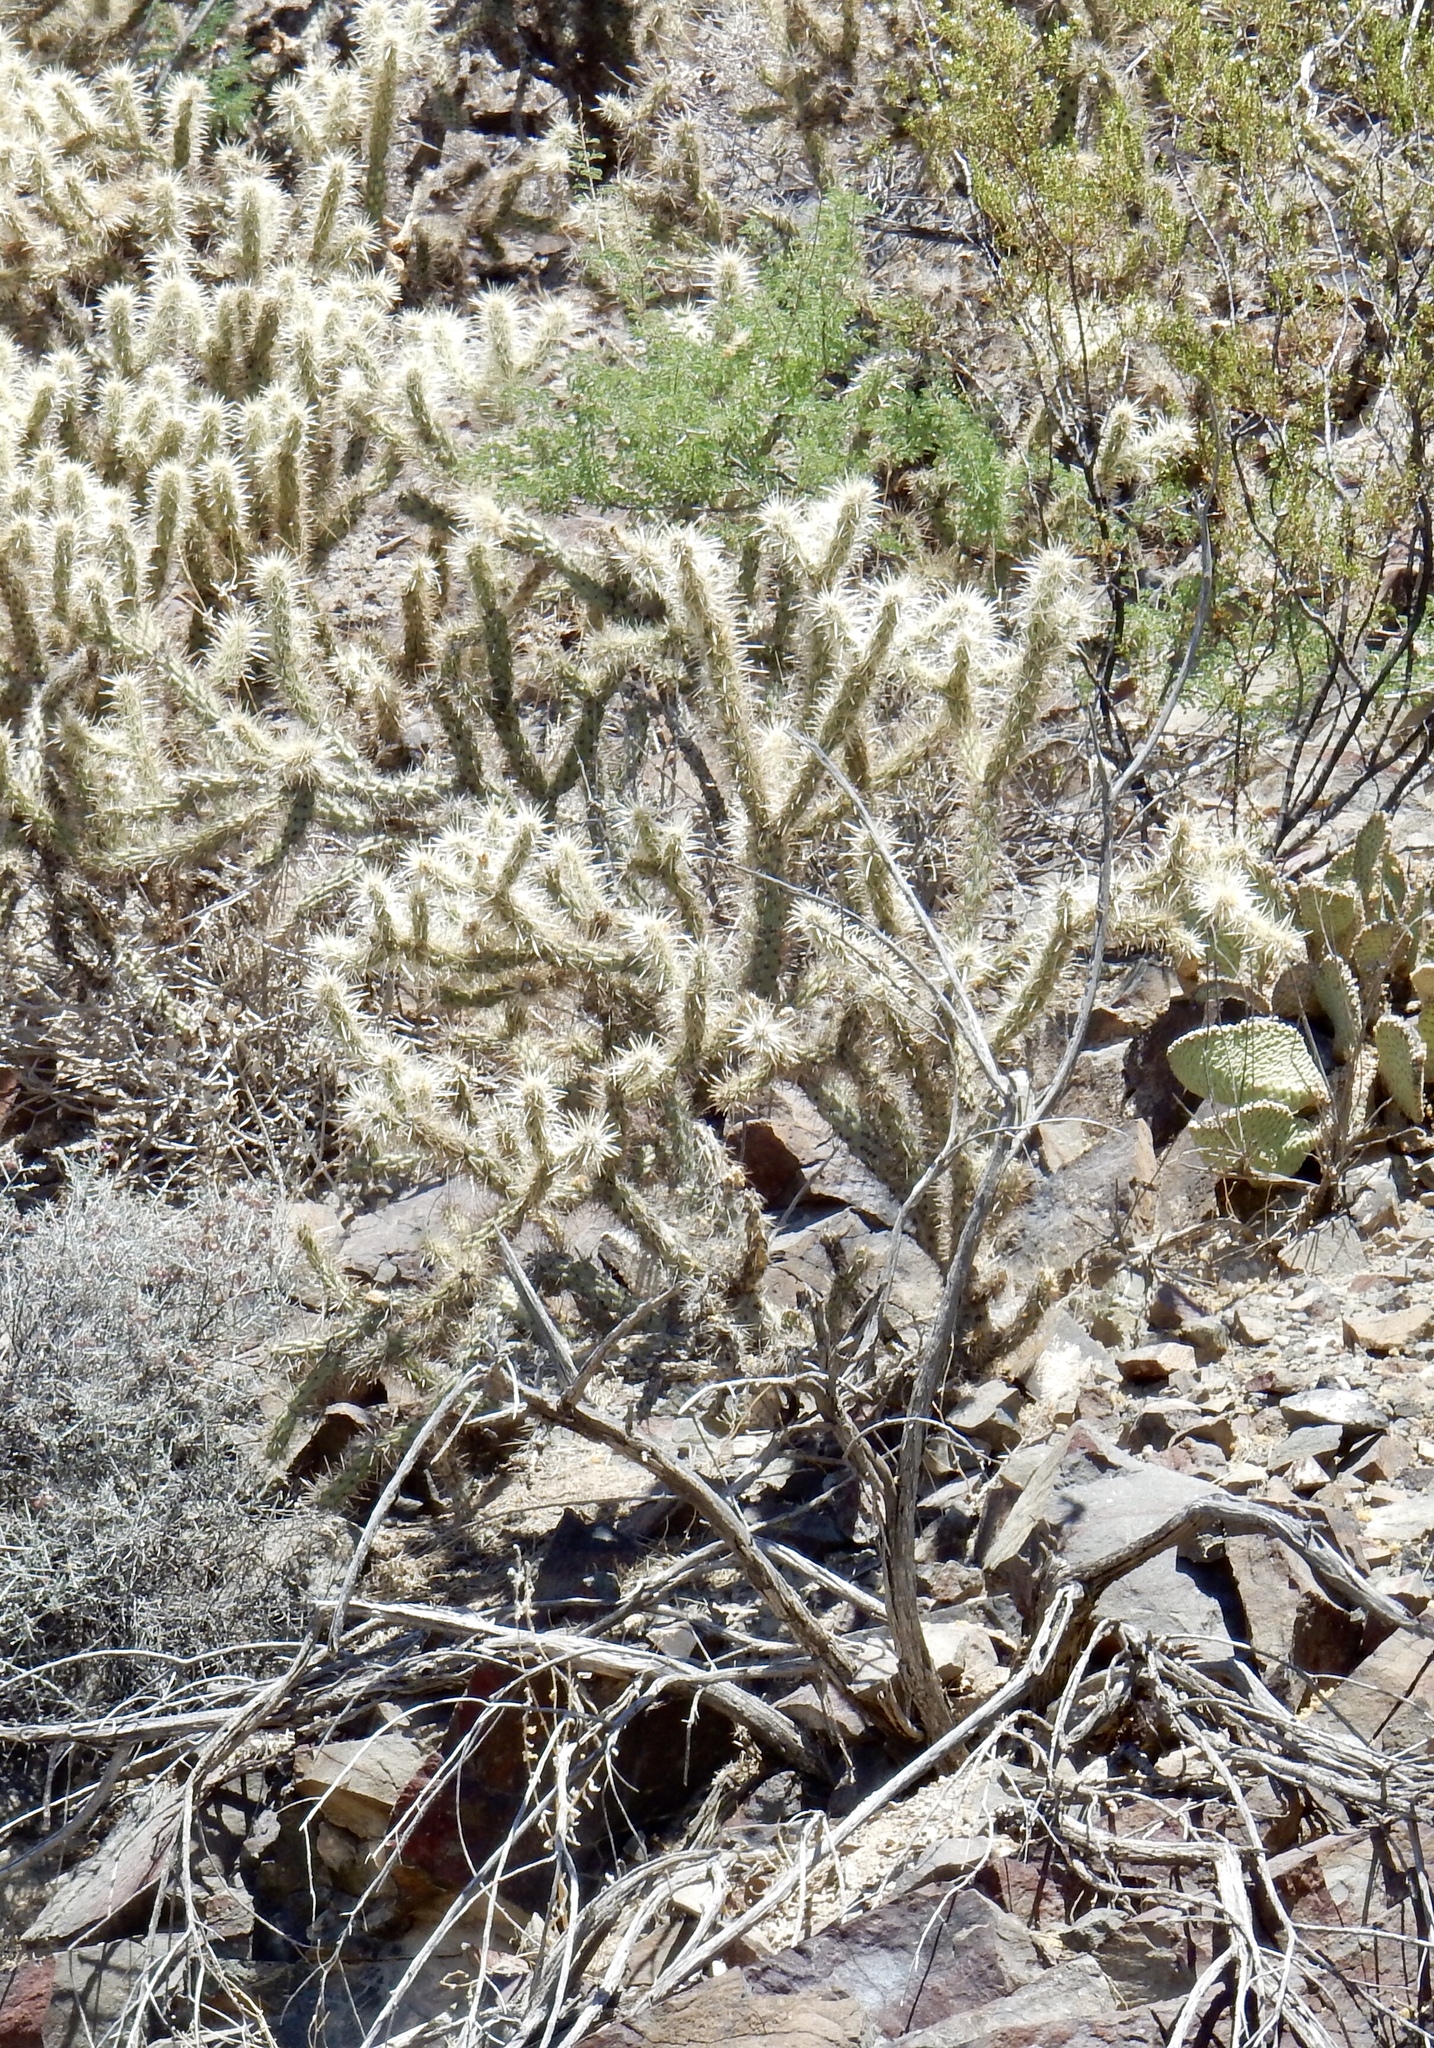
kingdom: Plantae
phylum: Tracheophyta
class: Magnoliopsida
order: Caryophyllales
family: Cactaceae
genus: Cylindropuntia
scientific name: Cylindropuntia acanthocarpa
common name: Buckhorn cholla
